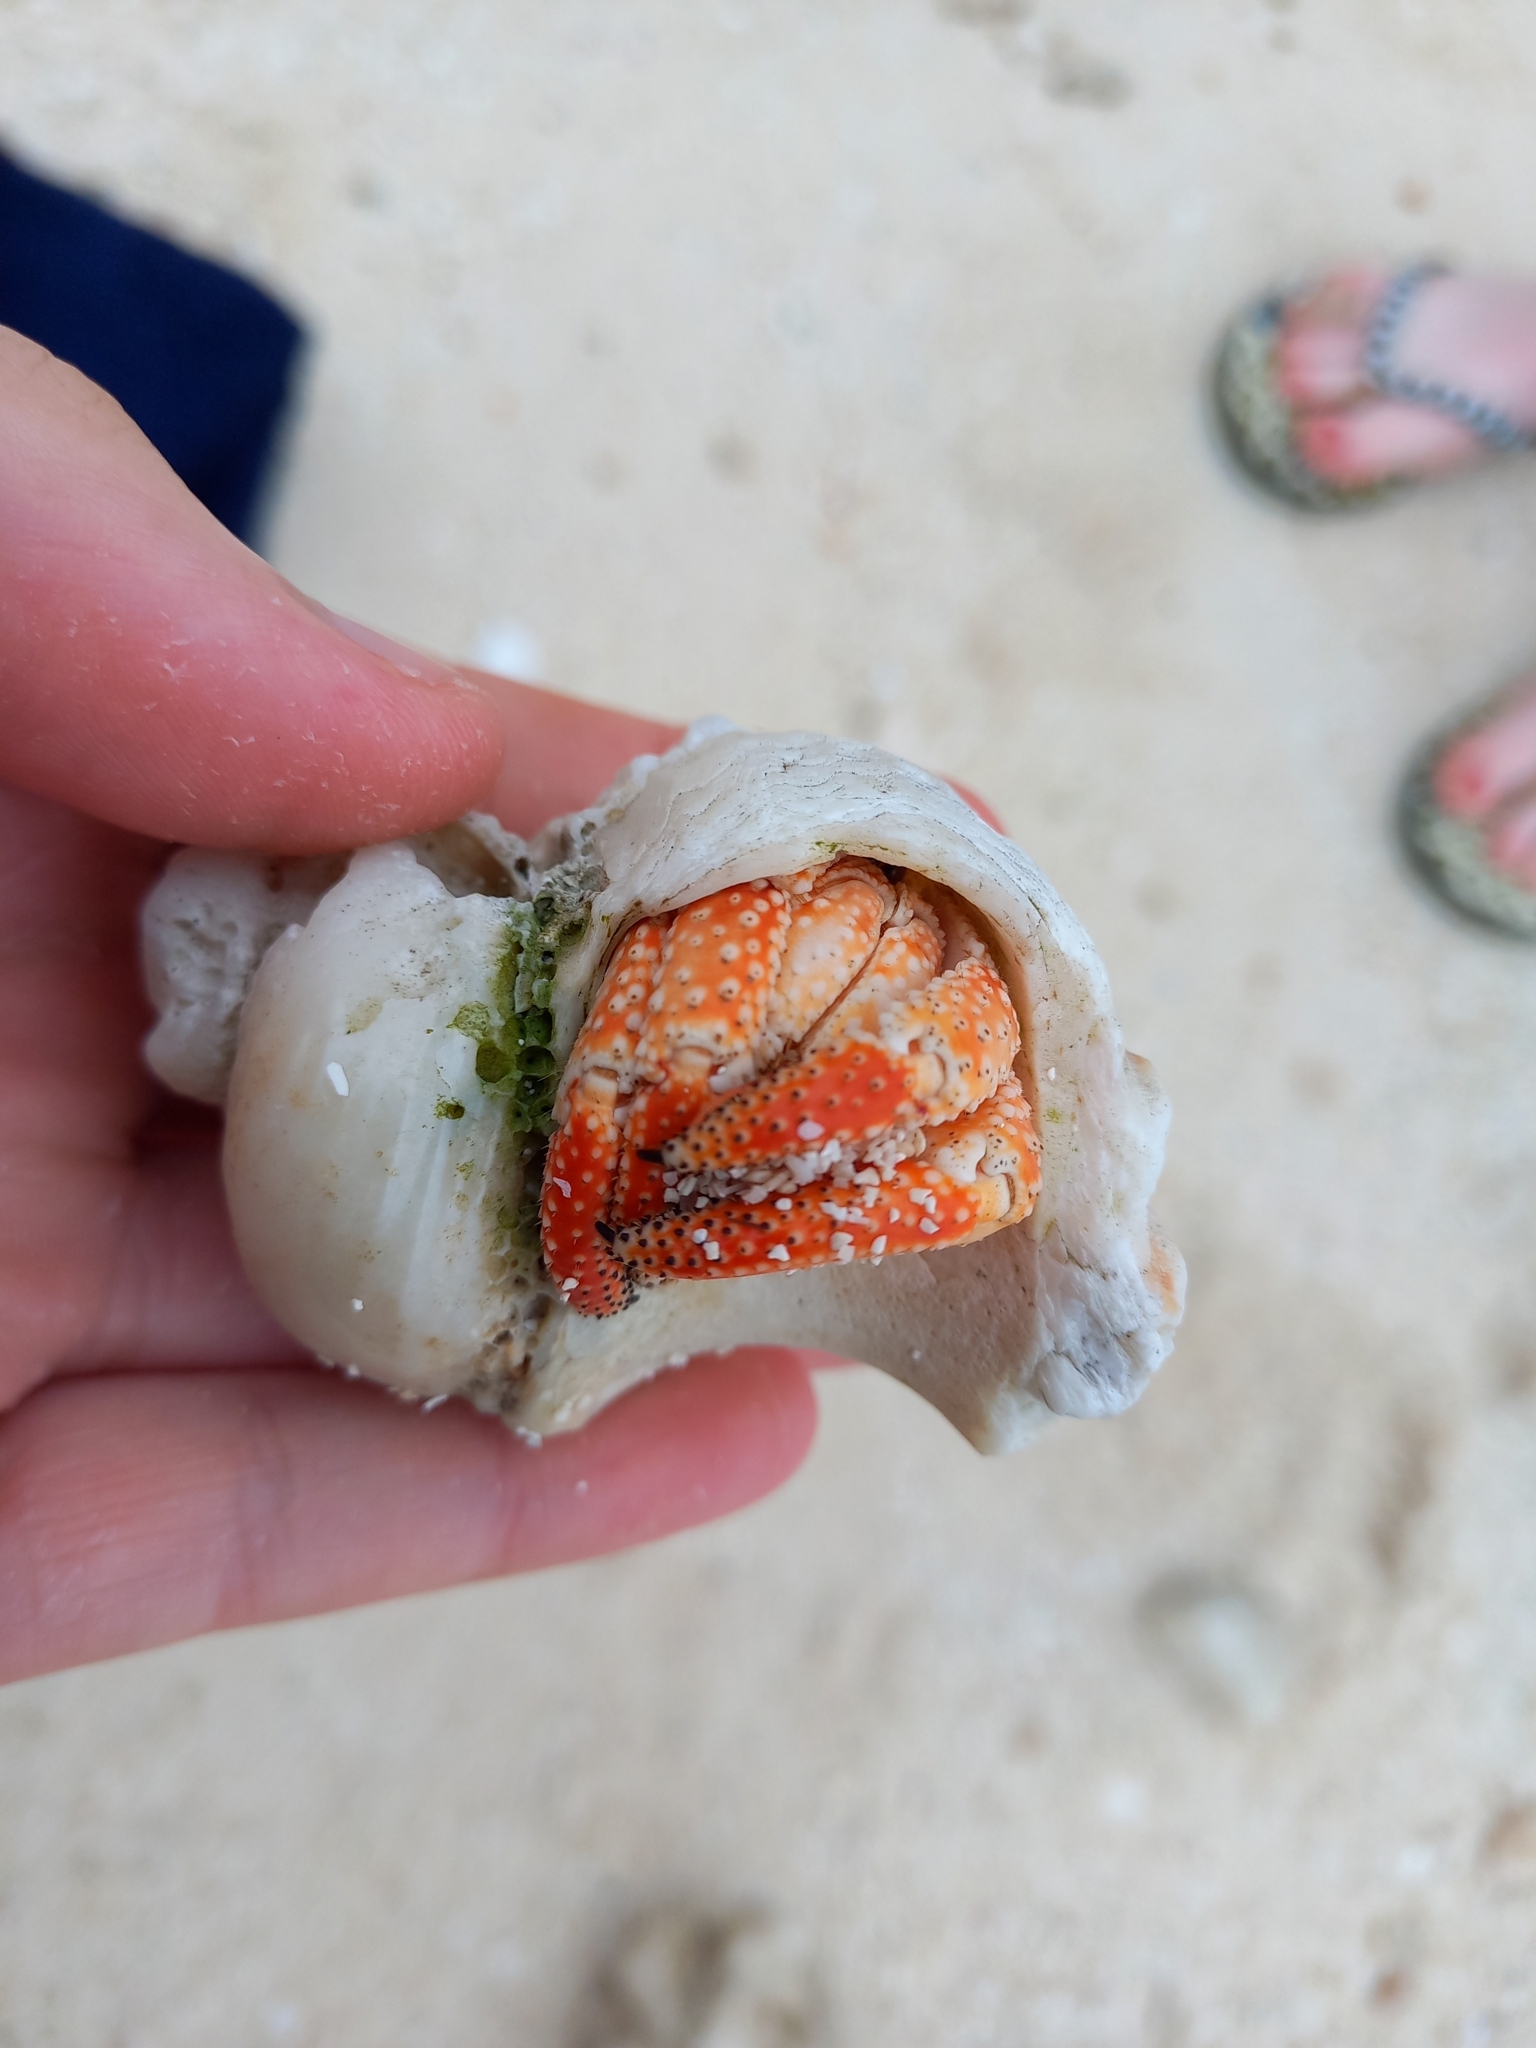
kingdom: Animalia
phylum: Arthropoda
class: Malacostraca
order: Decapoda
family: Coenobitidae
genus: Coenobita
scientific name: Coenobita perlatus
